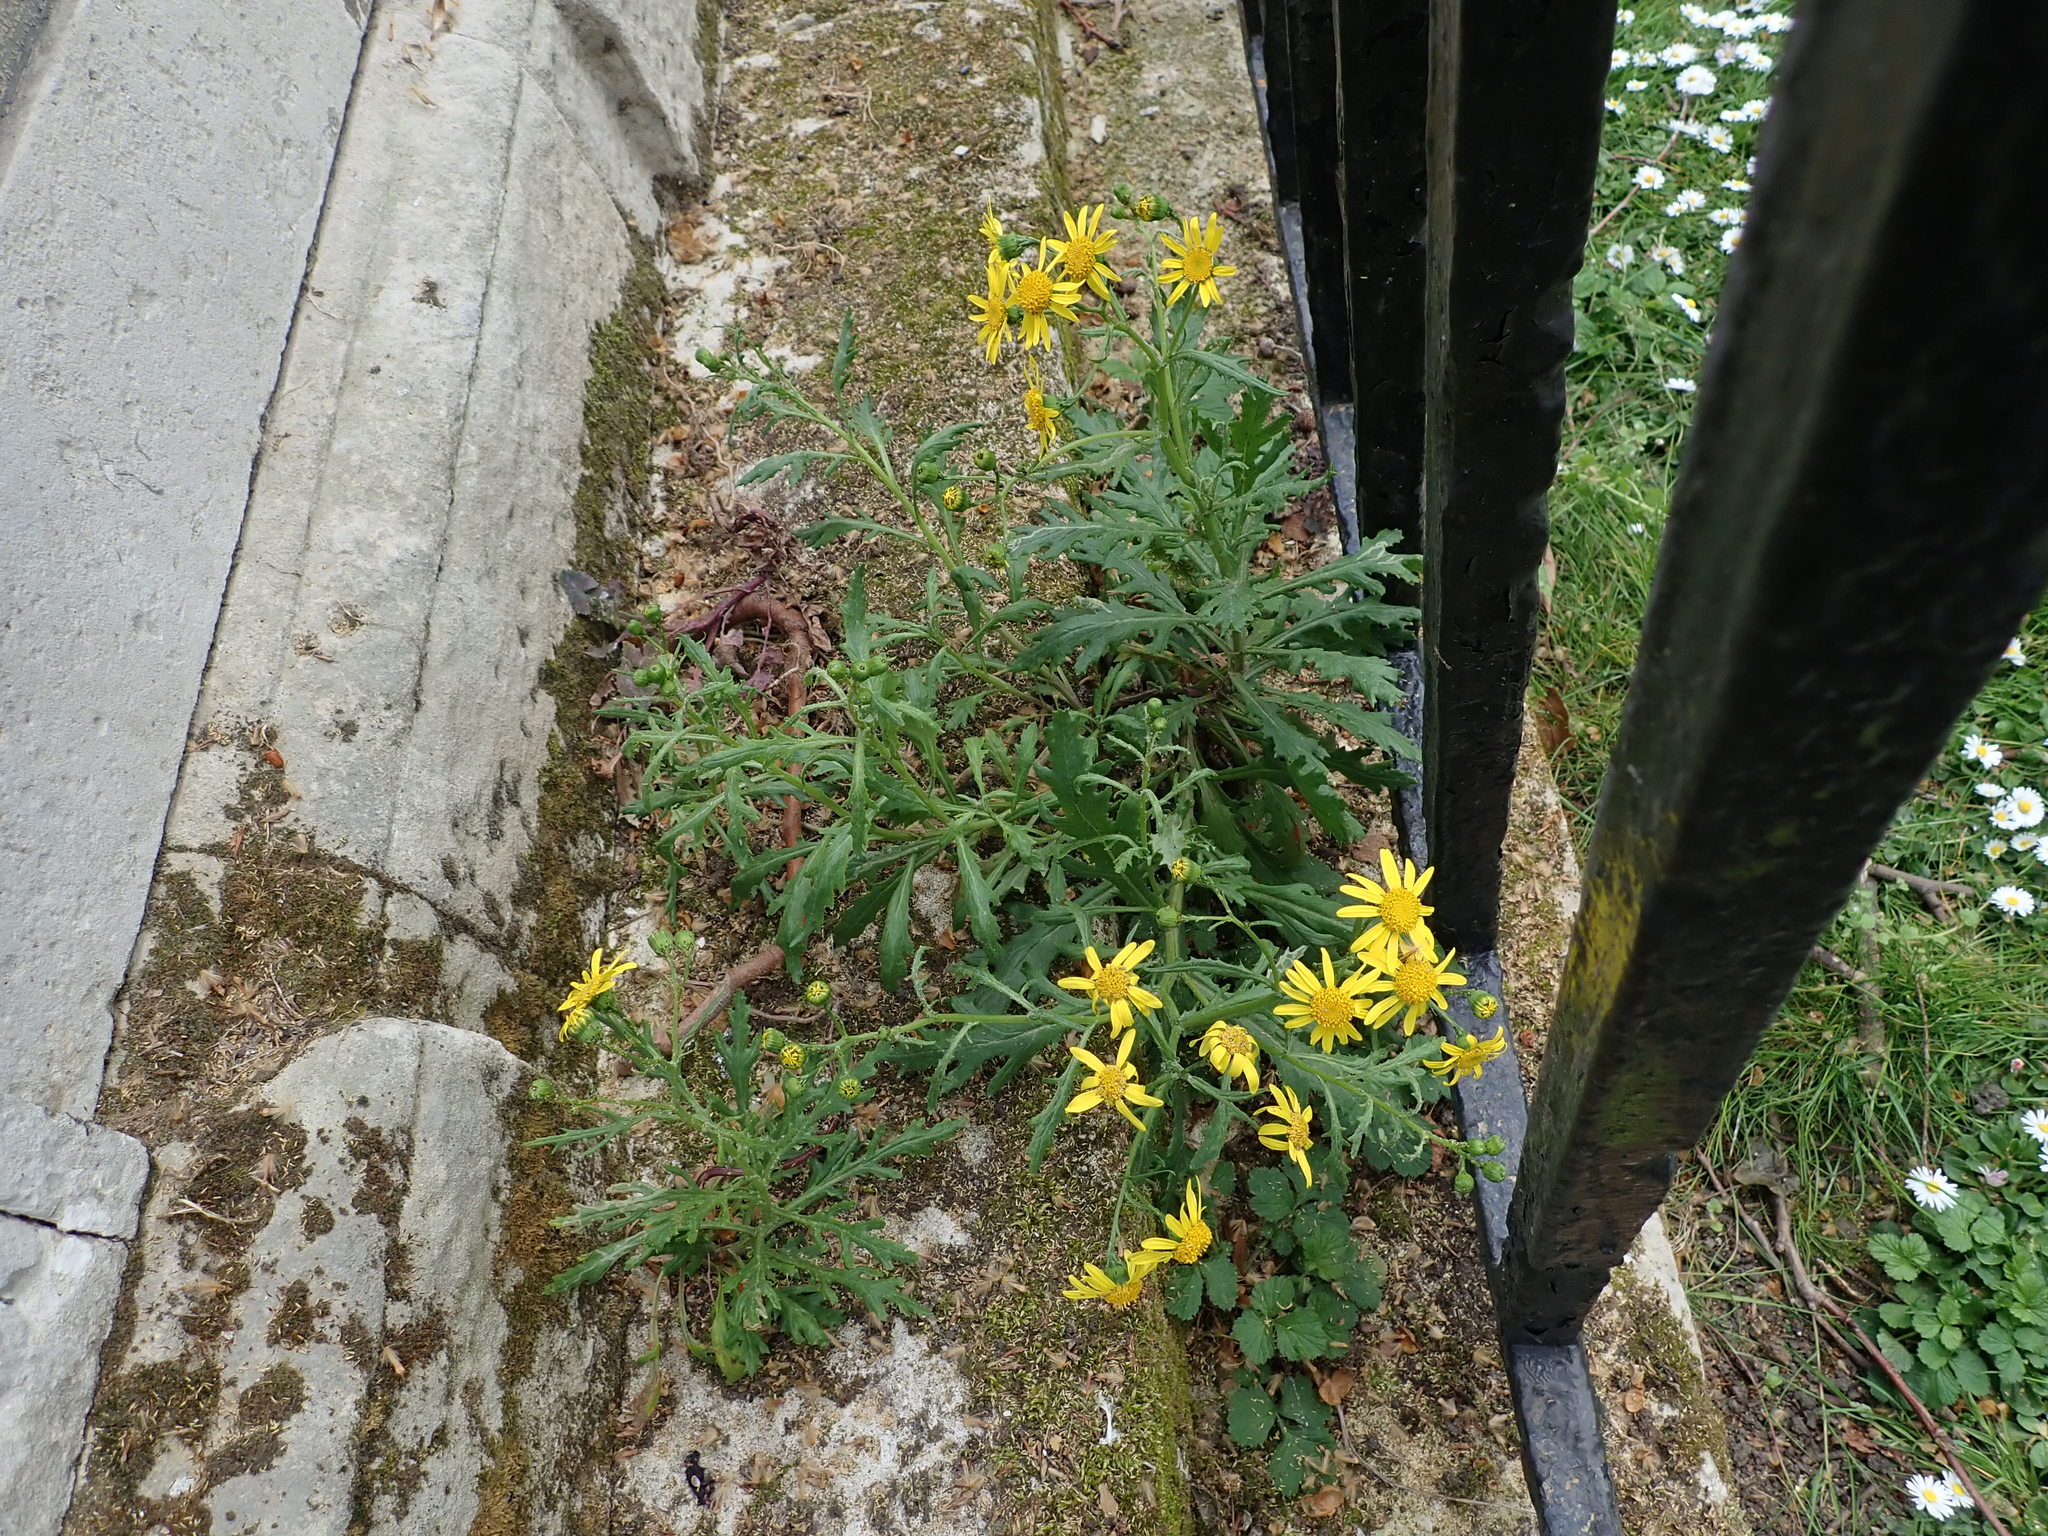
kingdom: Plantae
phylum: Tracheophyta
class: Magnoliopsida
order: Asterales
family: Asteraceae
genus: Senecio
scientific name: Senecio squalidus
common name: Oxford ragwort
